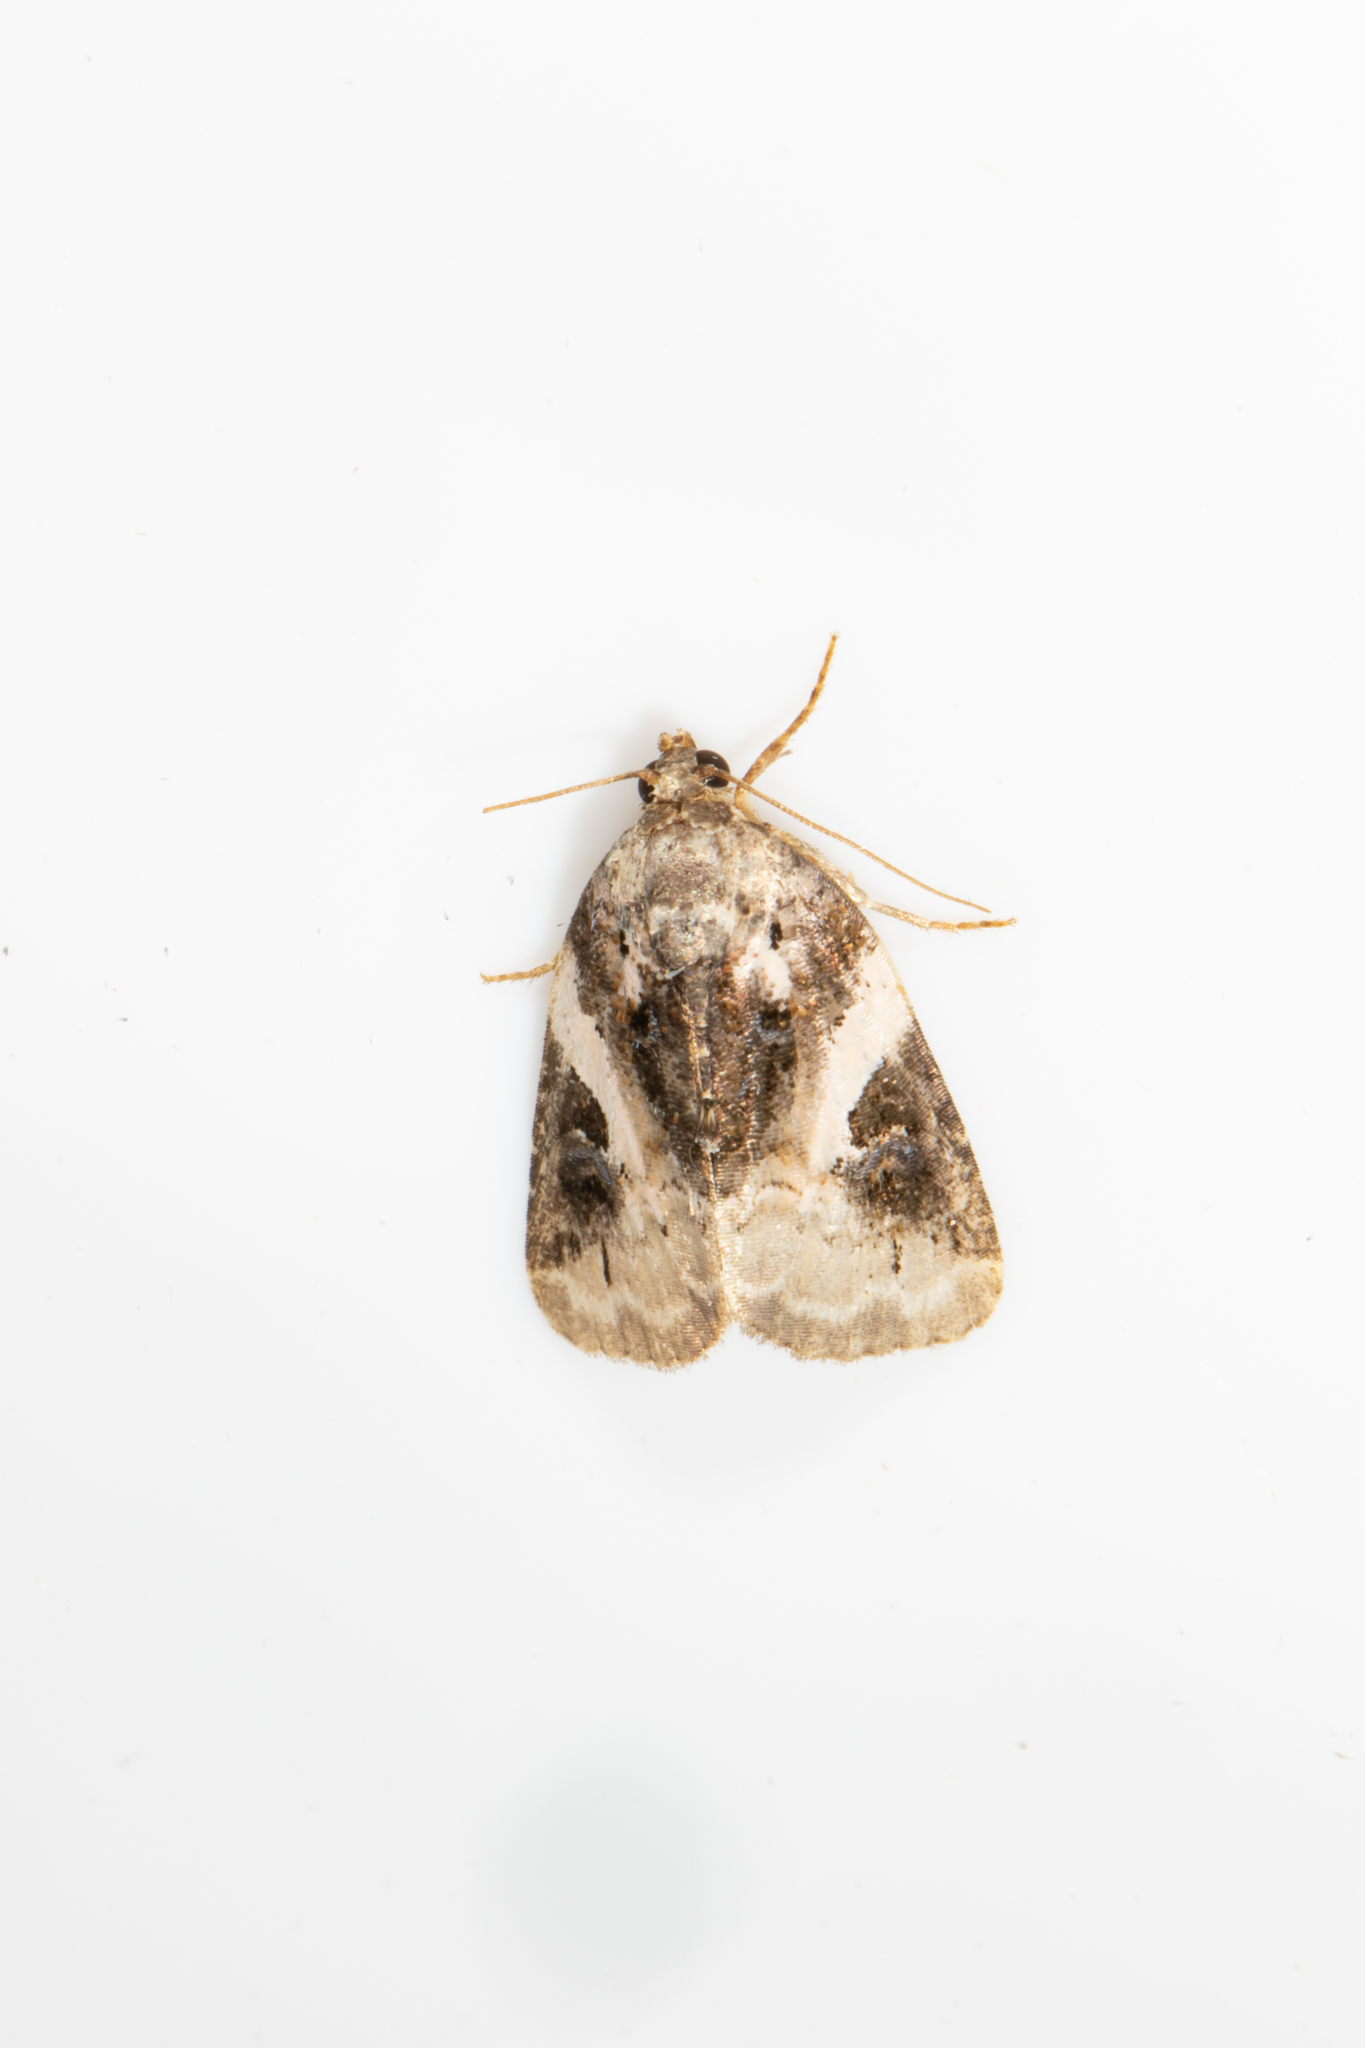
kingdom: Animalia
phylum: Arthropoda
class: Insecta
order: Lepidoptera
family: Noctuidae
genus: Pseudeustrotia
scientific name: Pseudeustrotia carneola
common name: Pink-barred lithacodia moth
